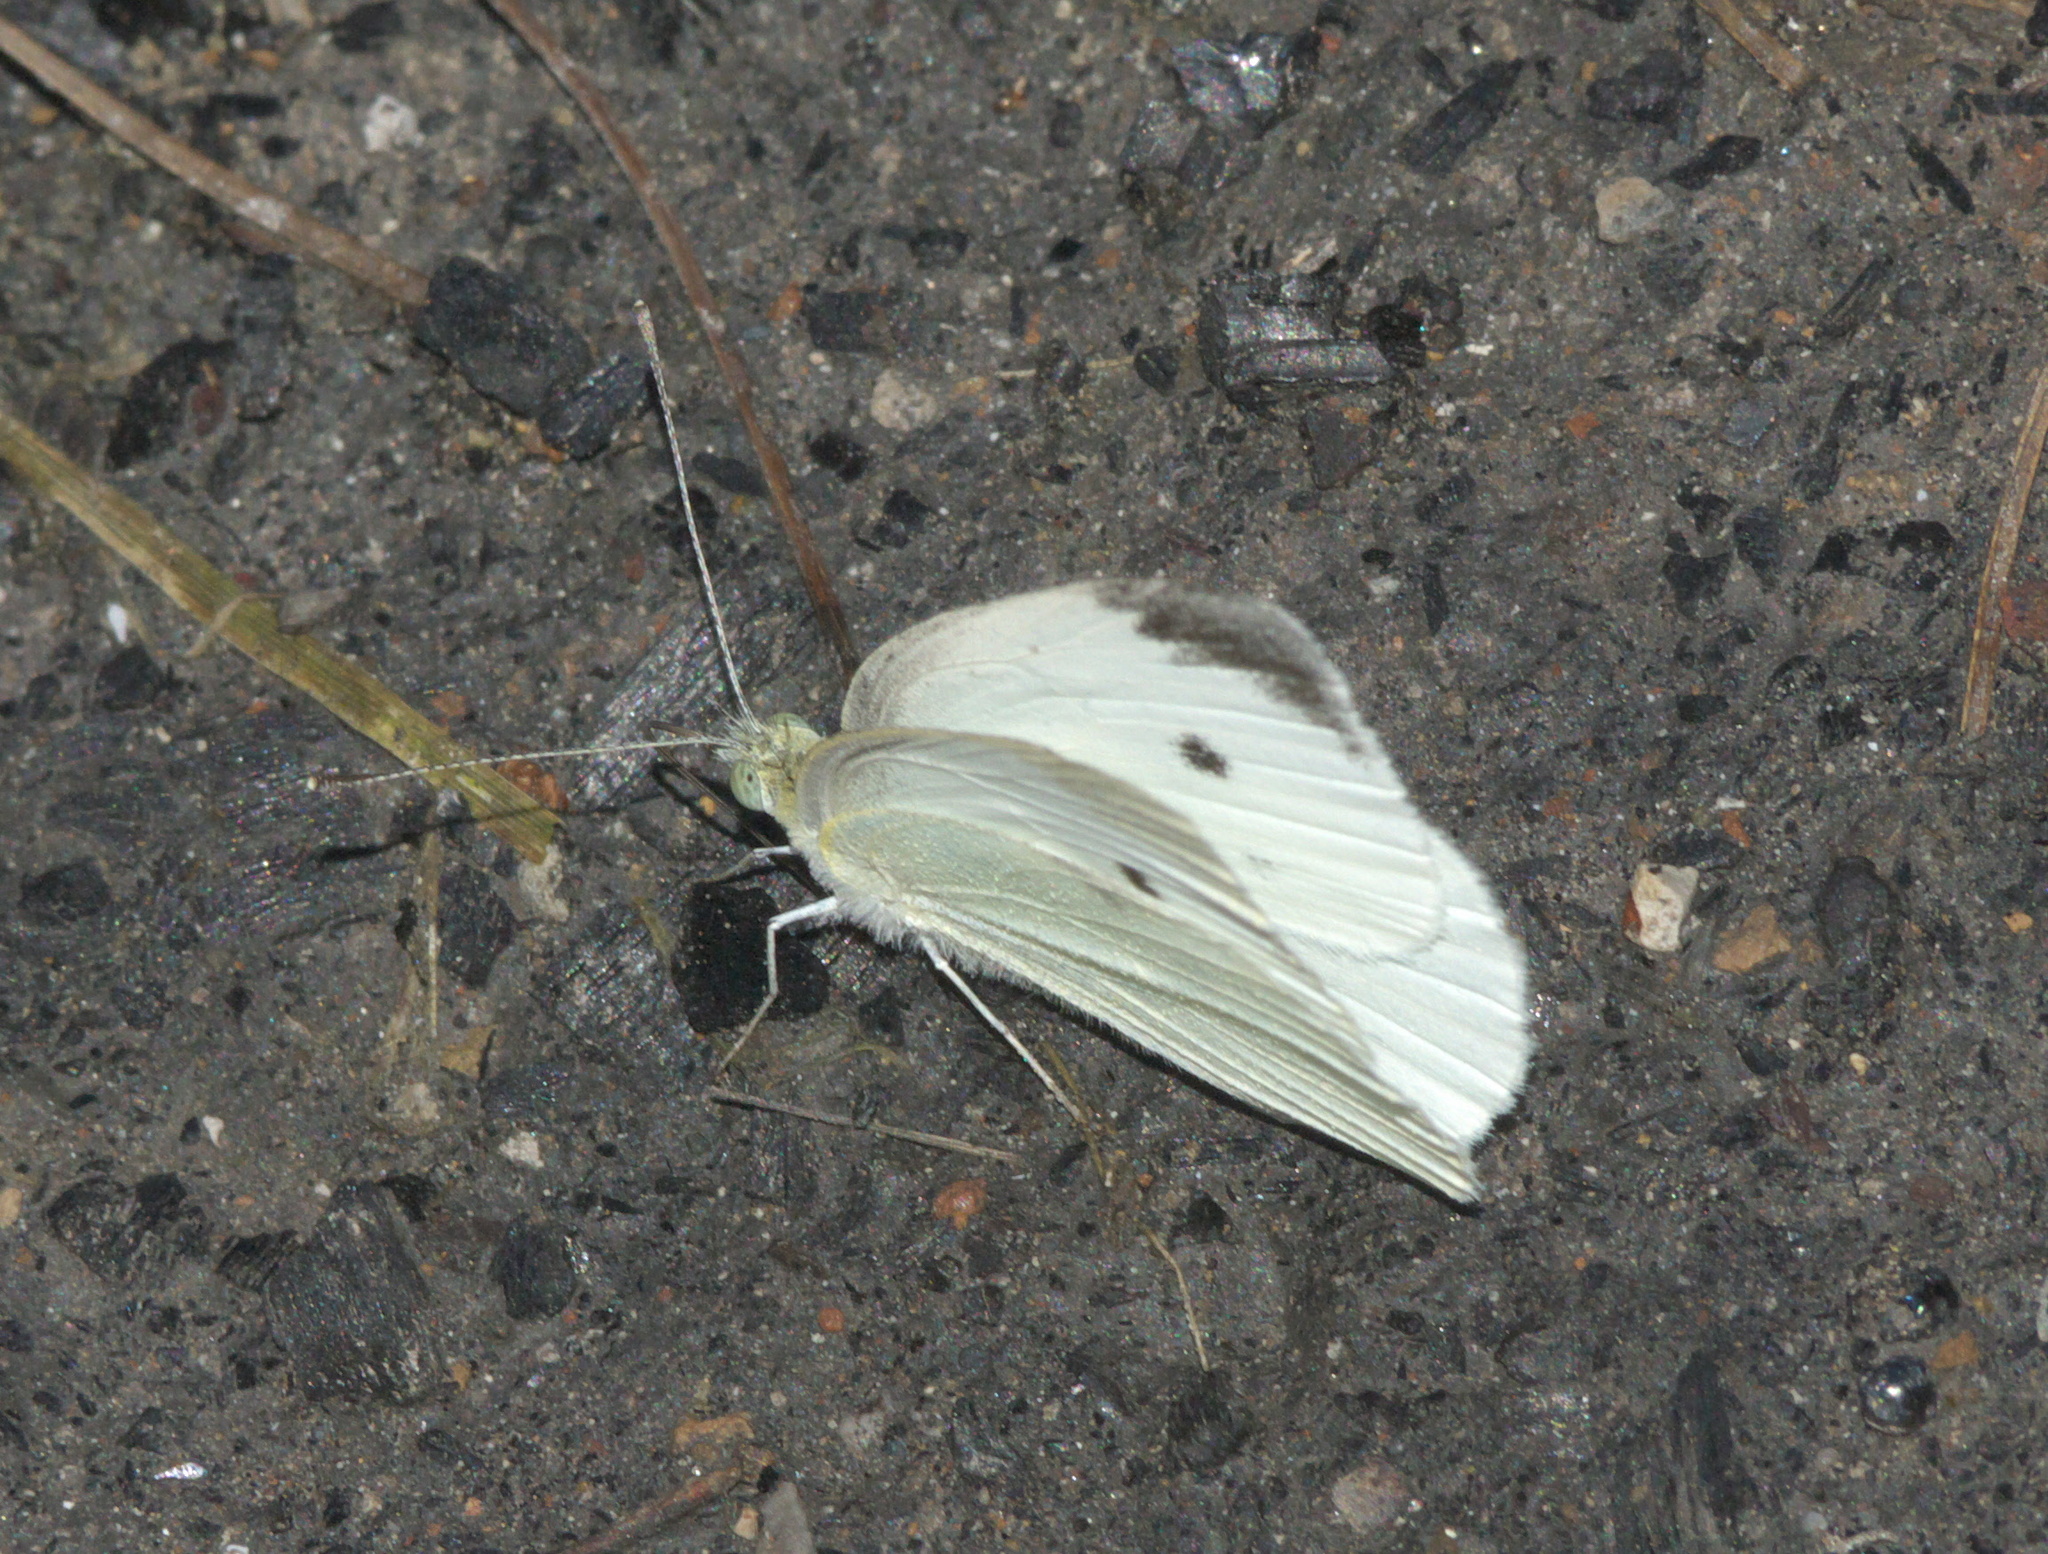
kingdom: Animalia
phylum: Arthropoda
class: Insecta
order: Lepidoptera
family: Pieridae
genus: Pieris
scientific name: Pieris rapae
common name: Small white
